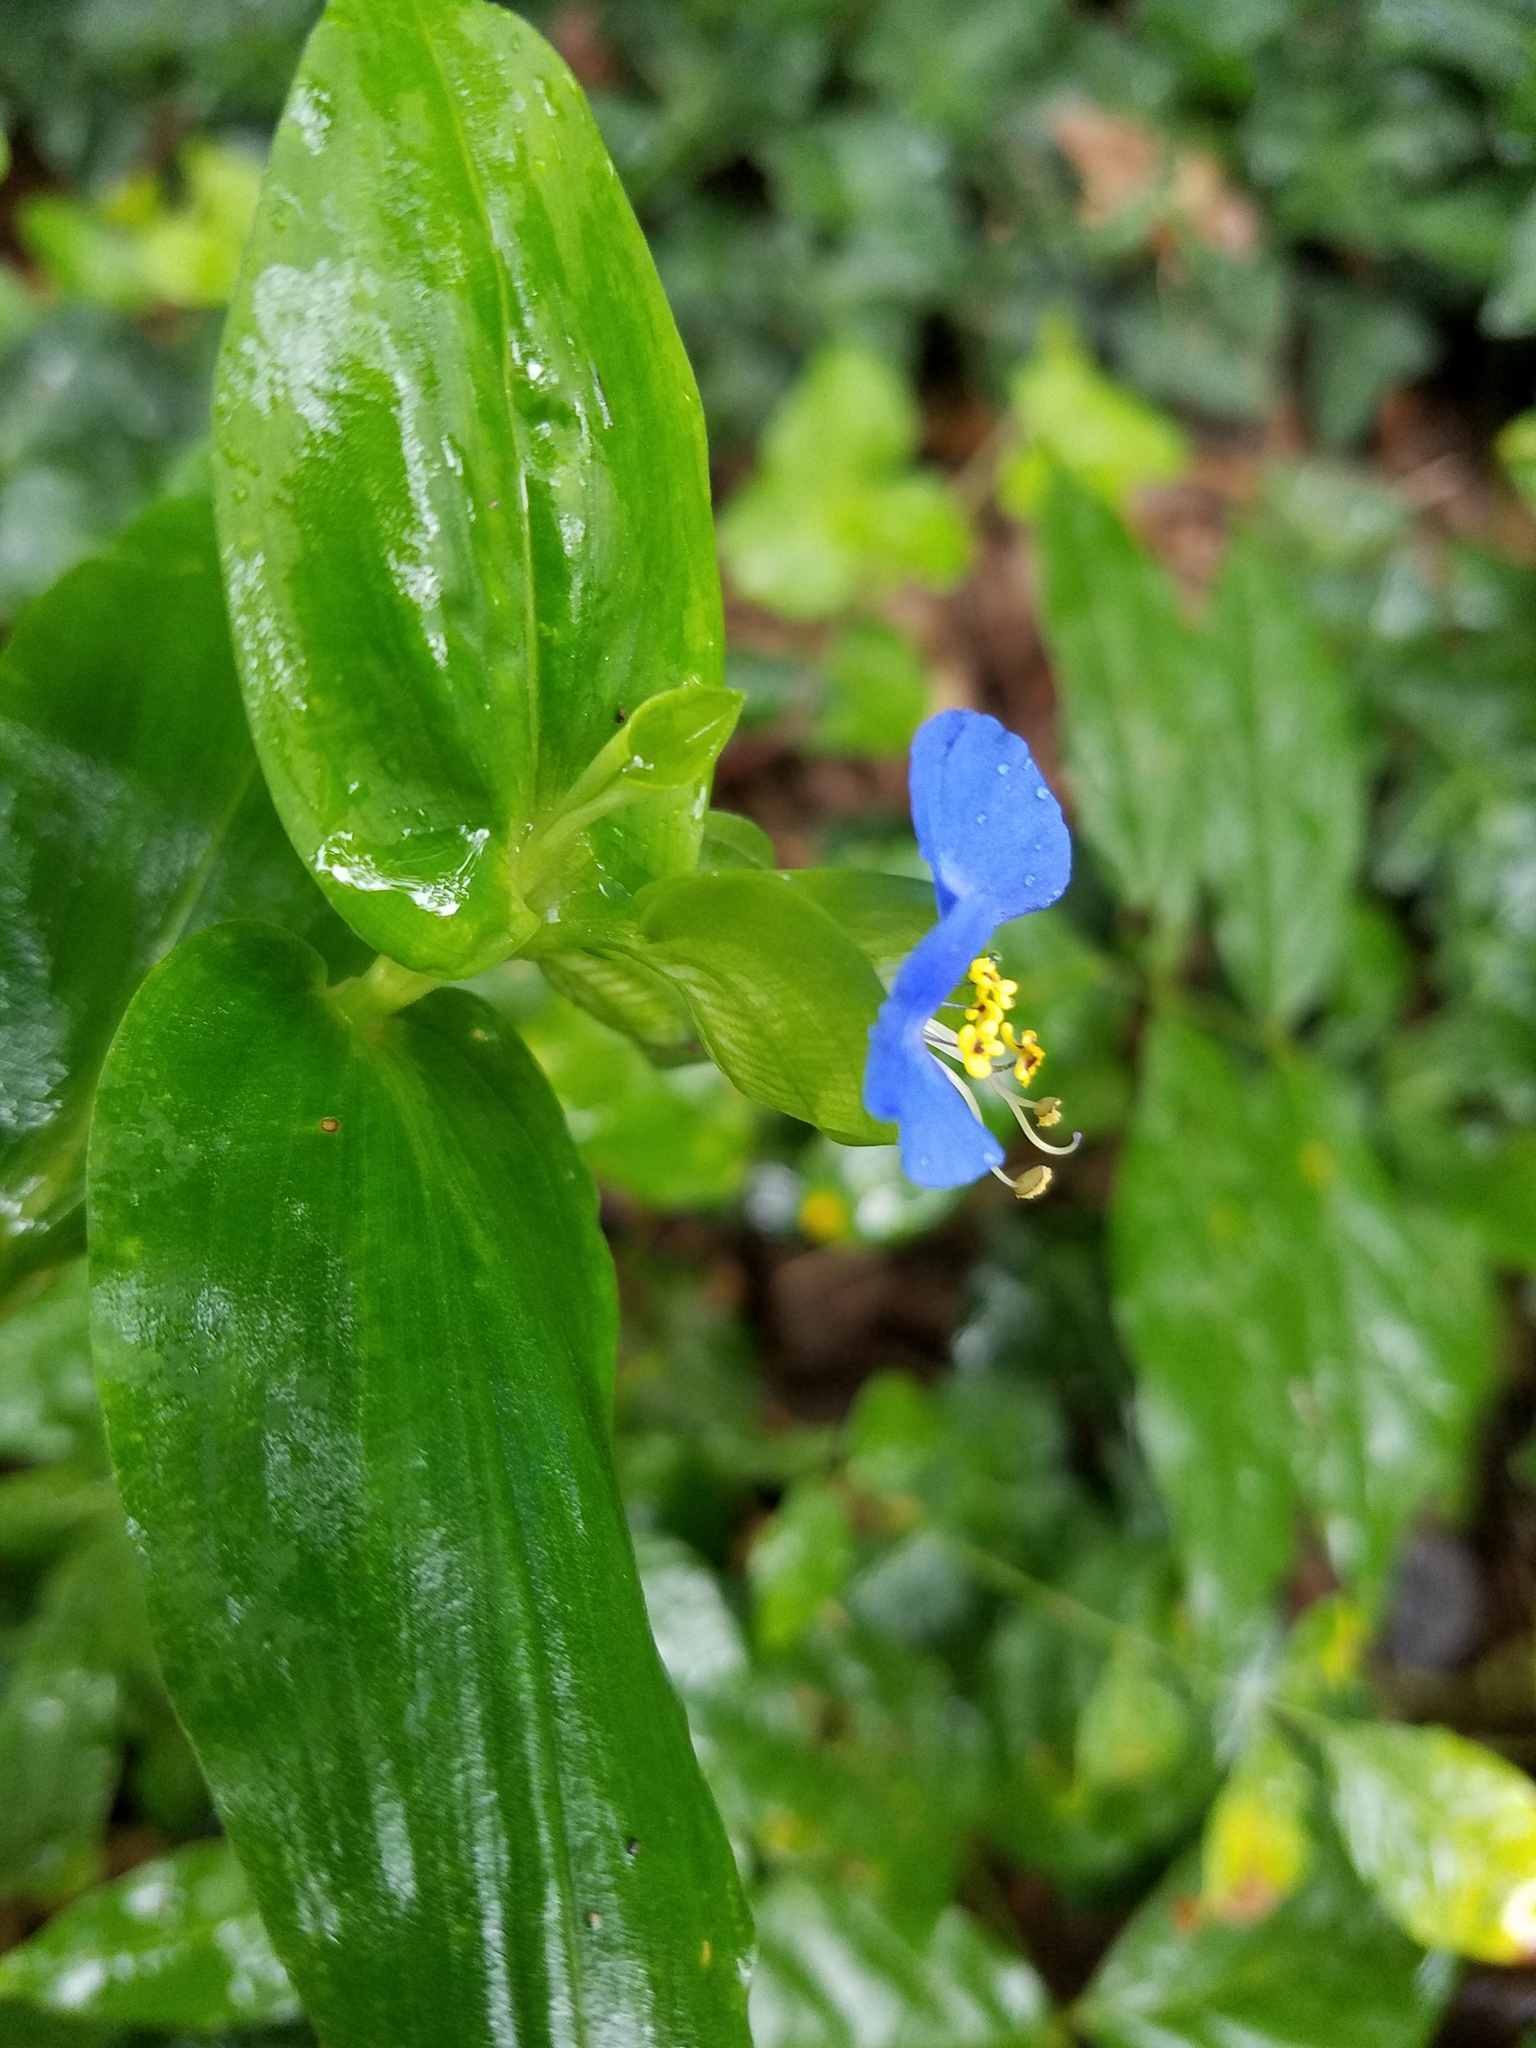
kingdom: Plantae
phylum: Tracheophyta
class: Liliopsida
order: Commelinales
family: Commelinaceae
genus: Commelina
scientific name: Commelina communis
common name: Asiatic dayflower
